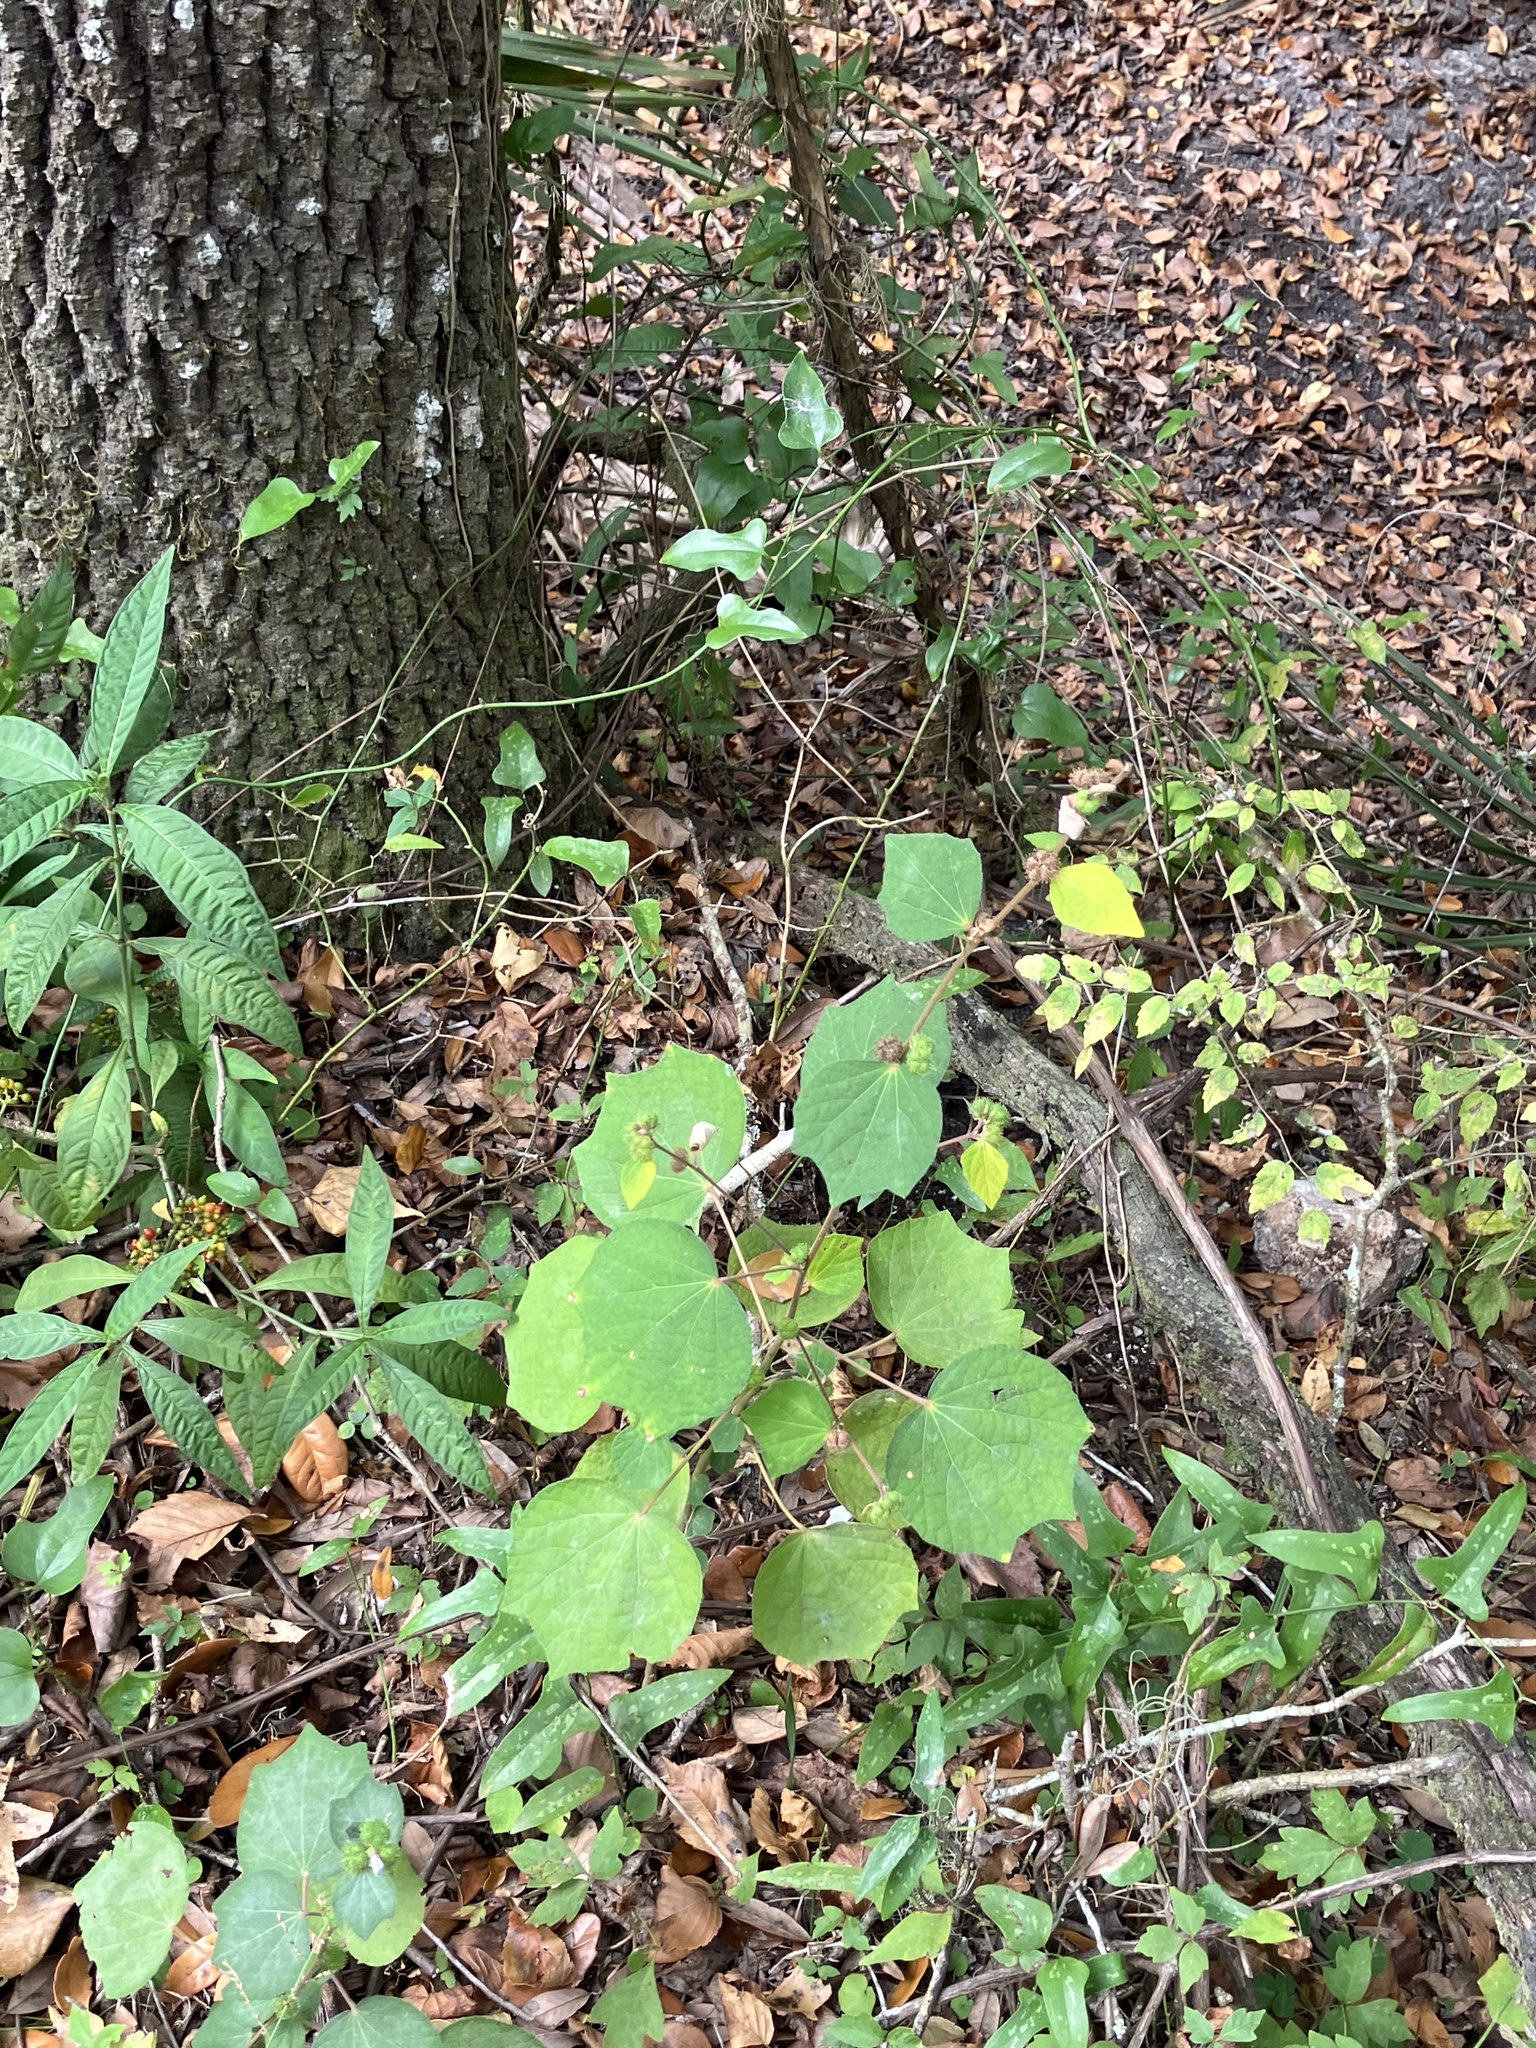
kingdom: Plantae
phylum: Tracheophyta
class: Magnoliopsida
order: Malvales
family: Malvaceae
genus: Urena
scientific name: Urena lobata
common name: Caesarweed
